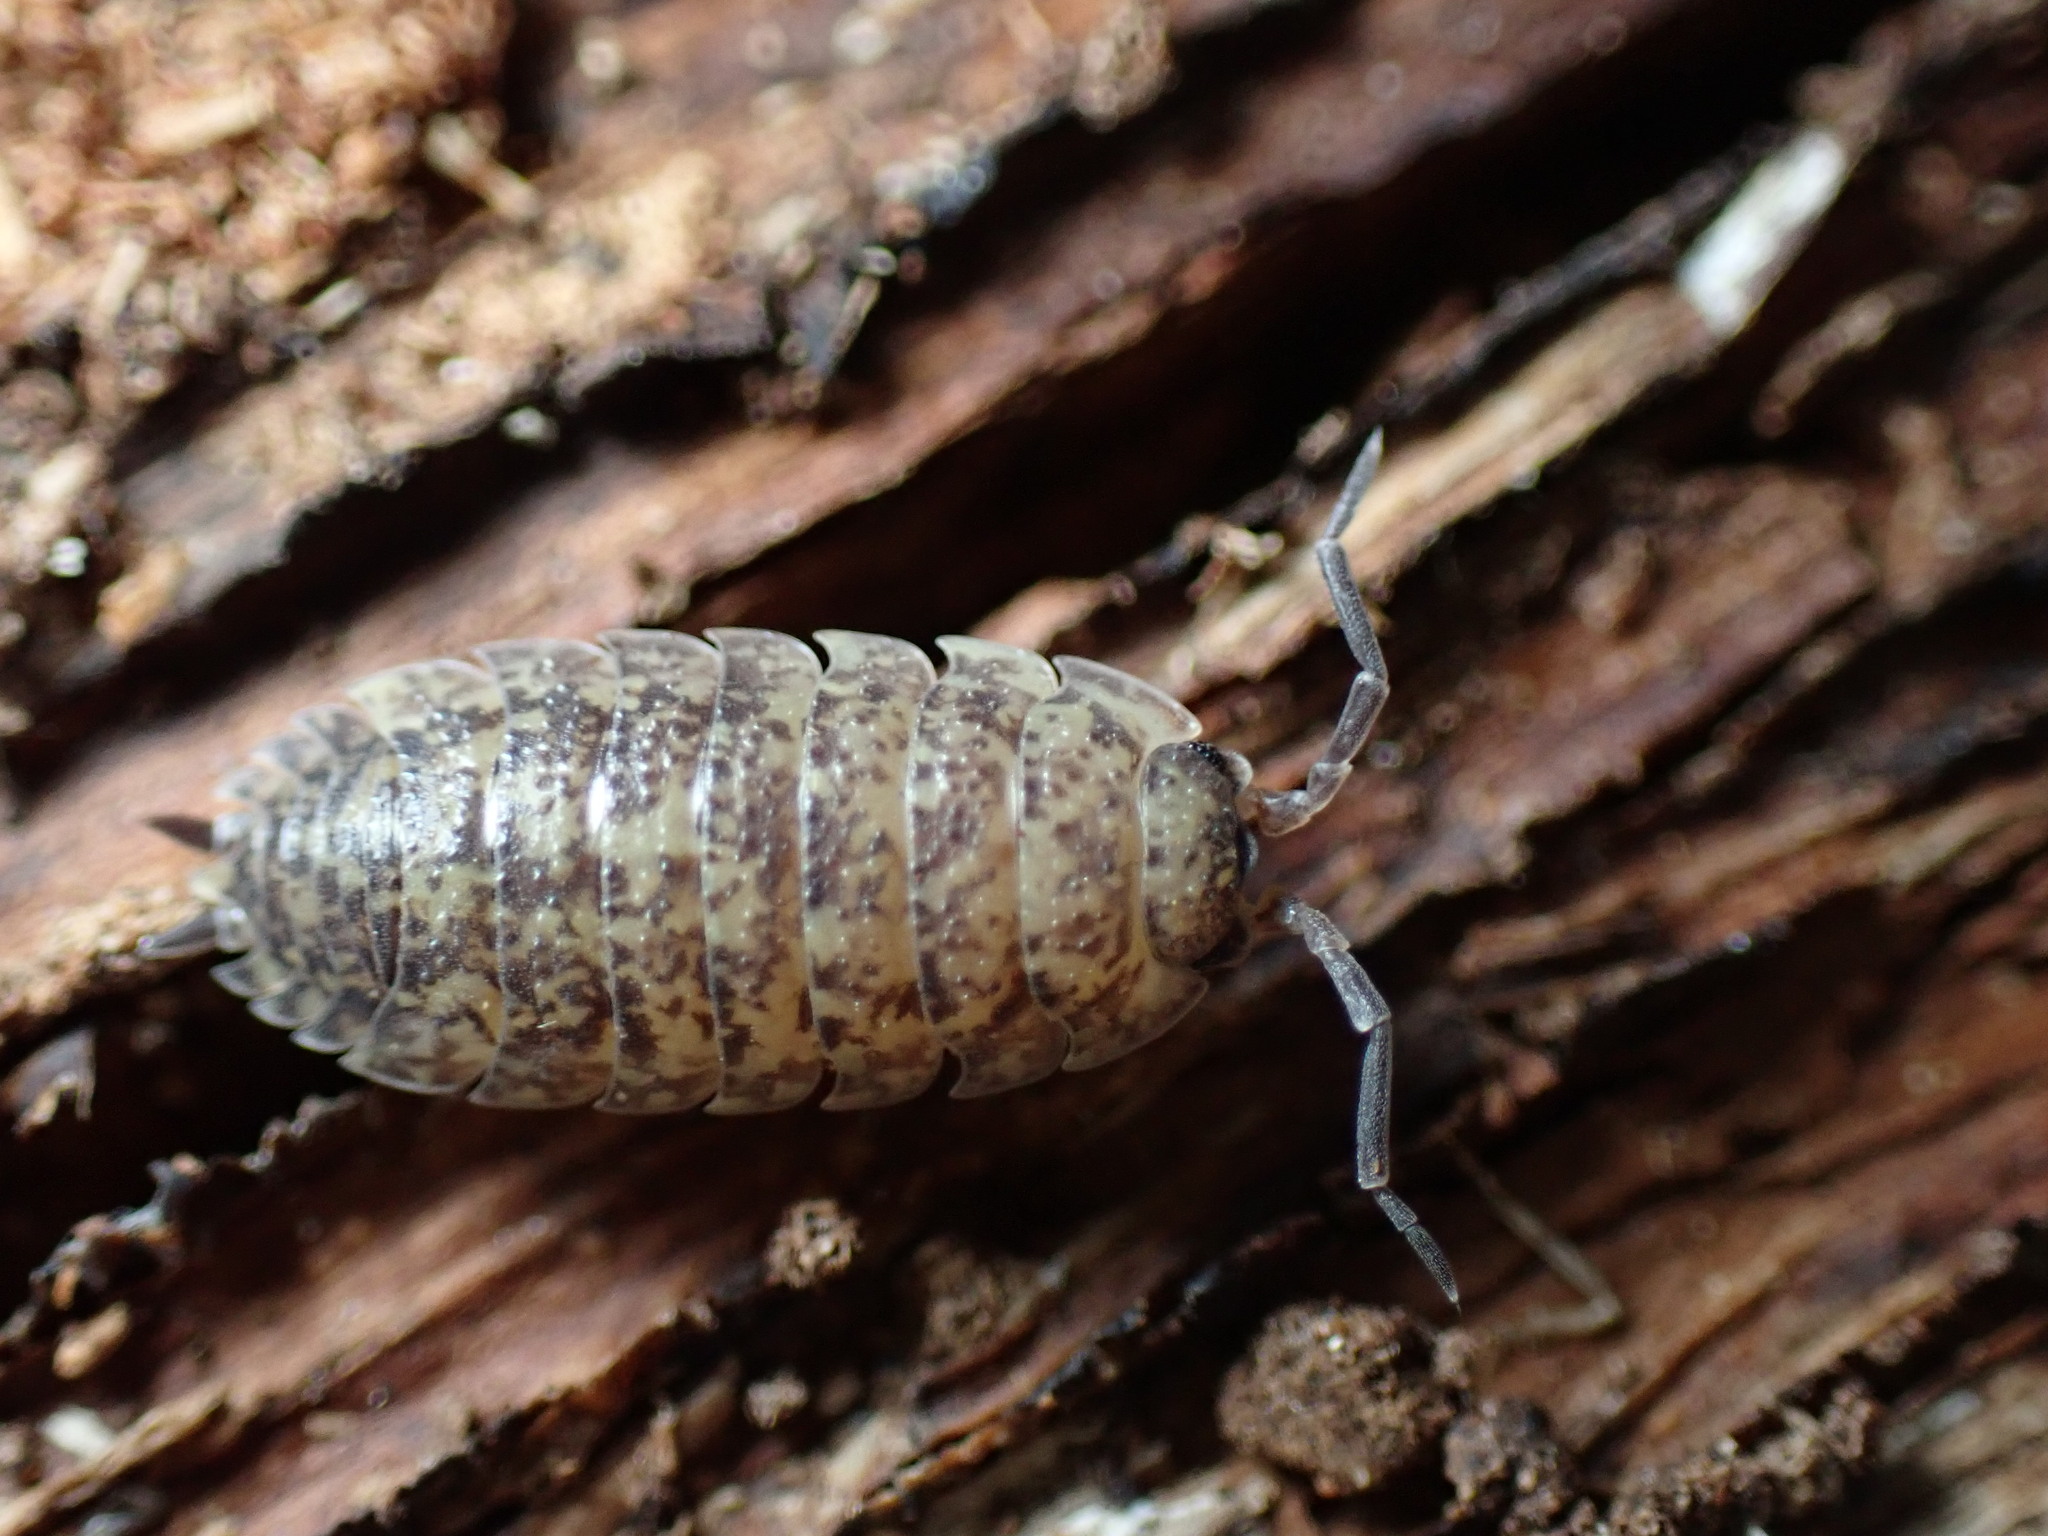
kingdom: Animalia
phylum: Arthropoda
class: Malacostraca
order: Isopoda
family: Porcellionidae
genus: Porcellio
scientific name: Porcellio scaber
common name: Common rough woodlouse
